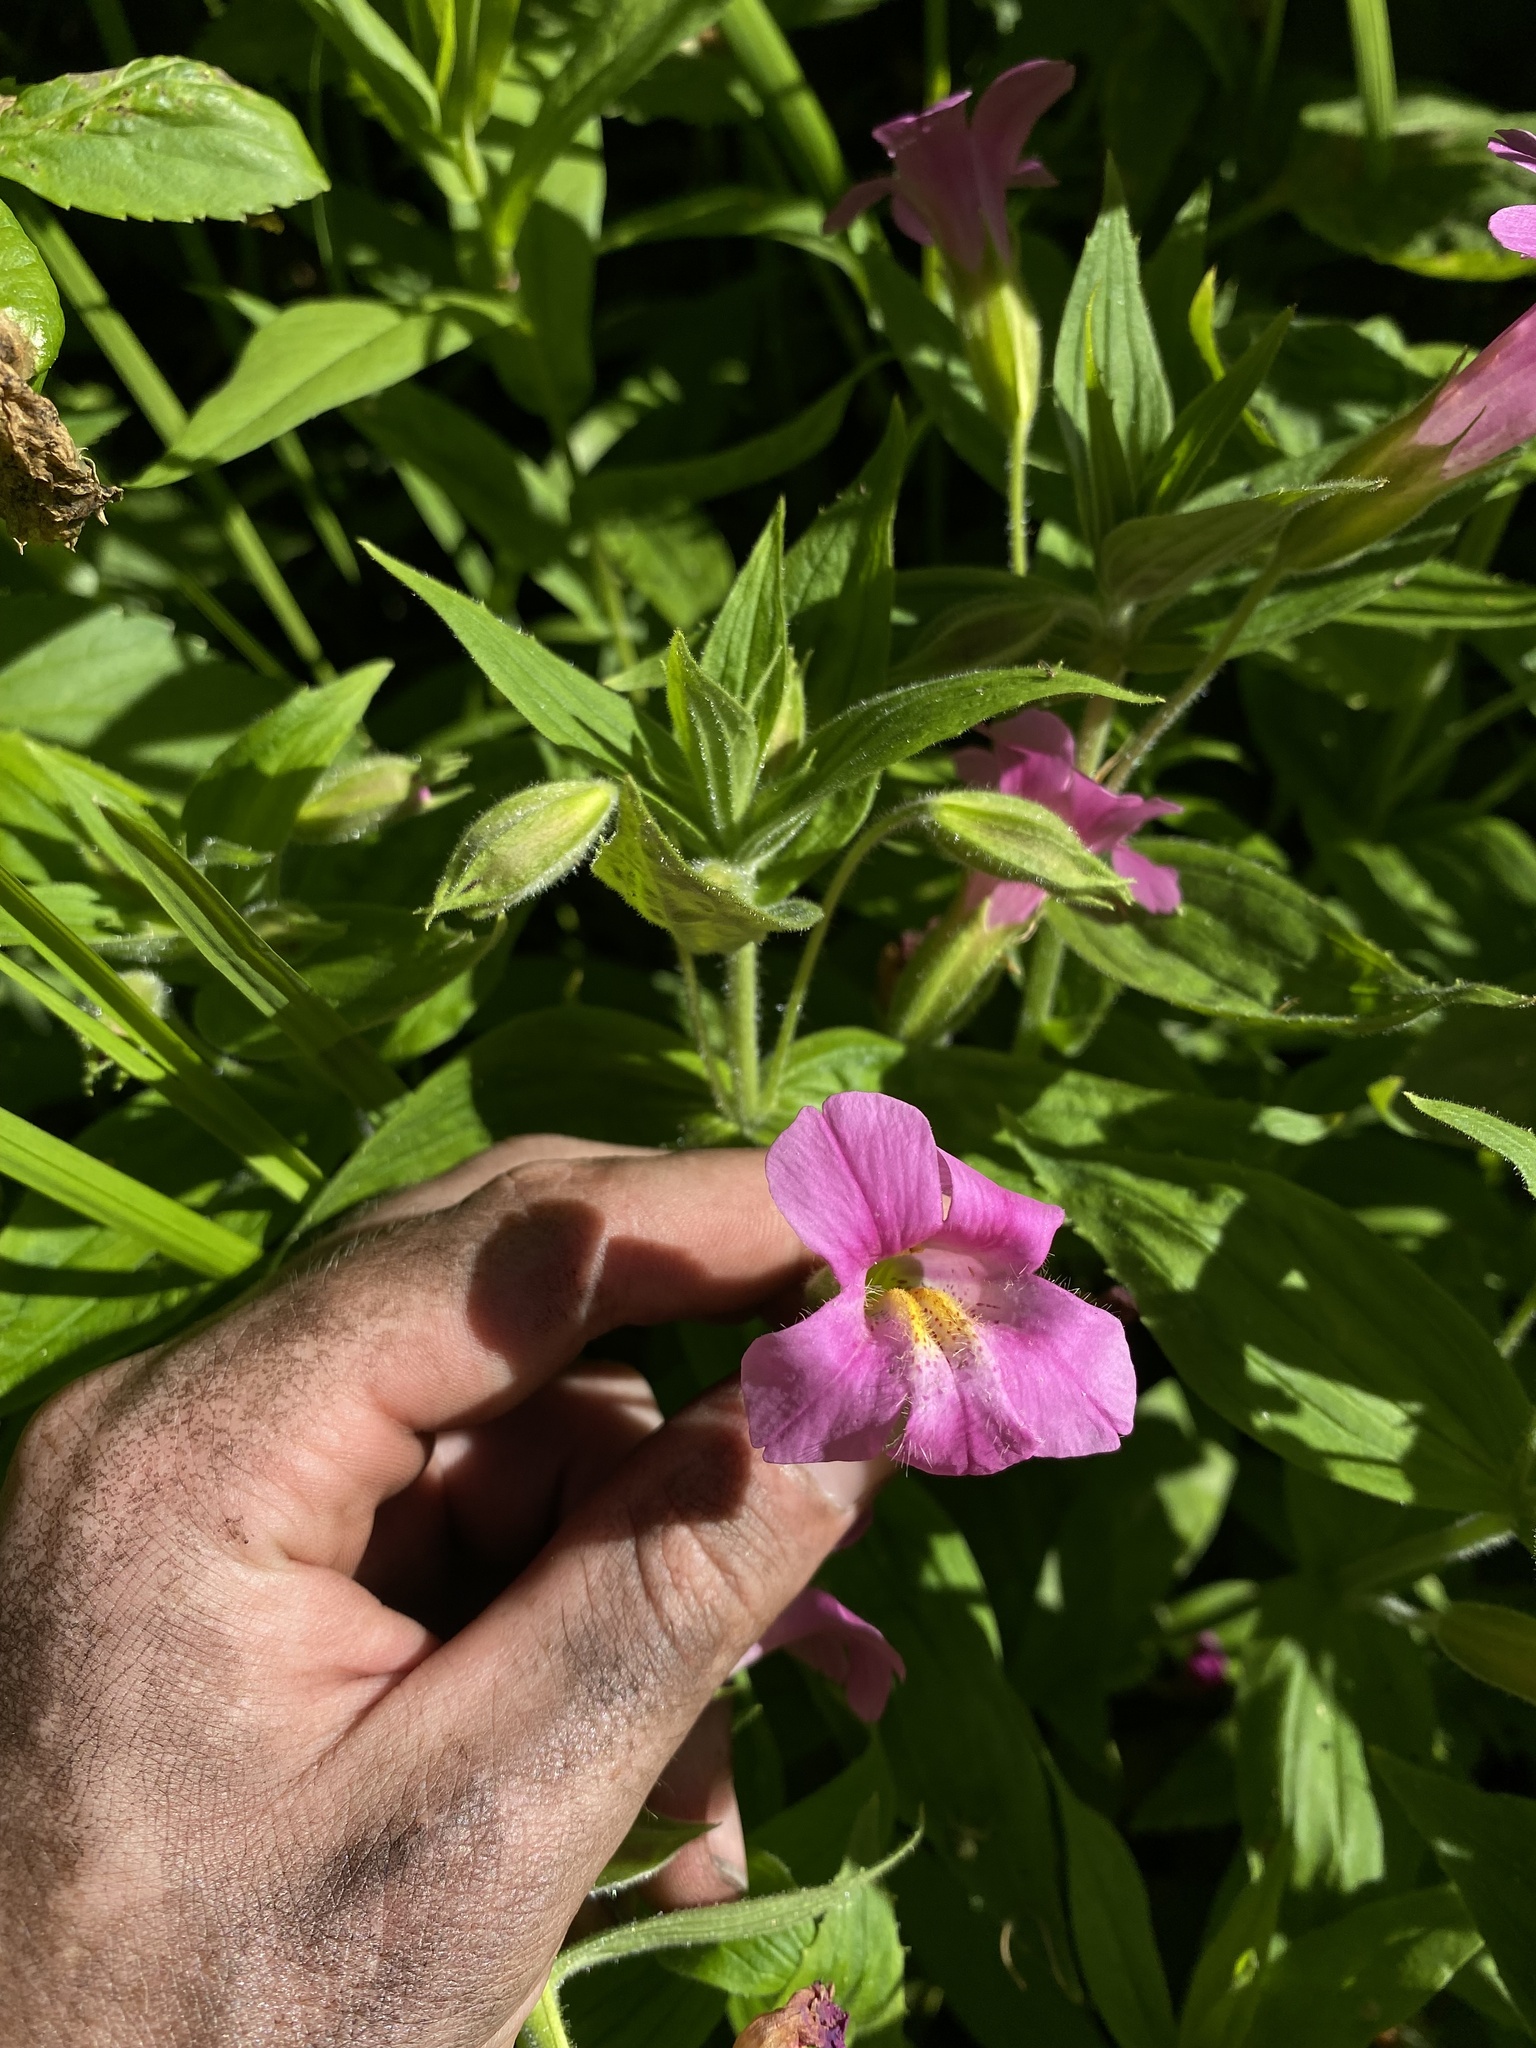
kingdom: Plantae
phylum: Tracheophyta
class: Magnoliopsida
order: Lamiales
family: Phrymaceae
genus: Erythranthe
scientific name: Erythranthe lewisii
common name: Lewis's monkey-flower
